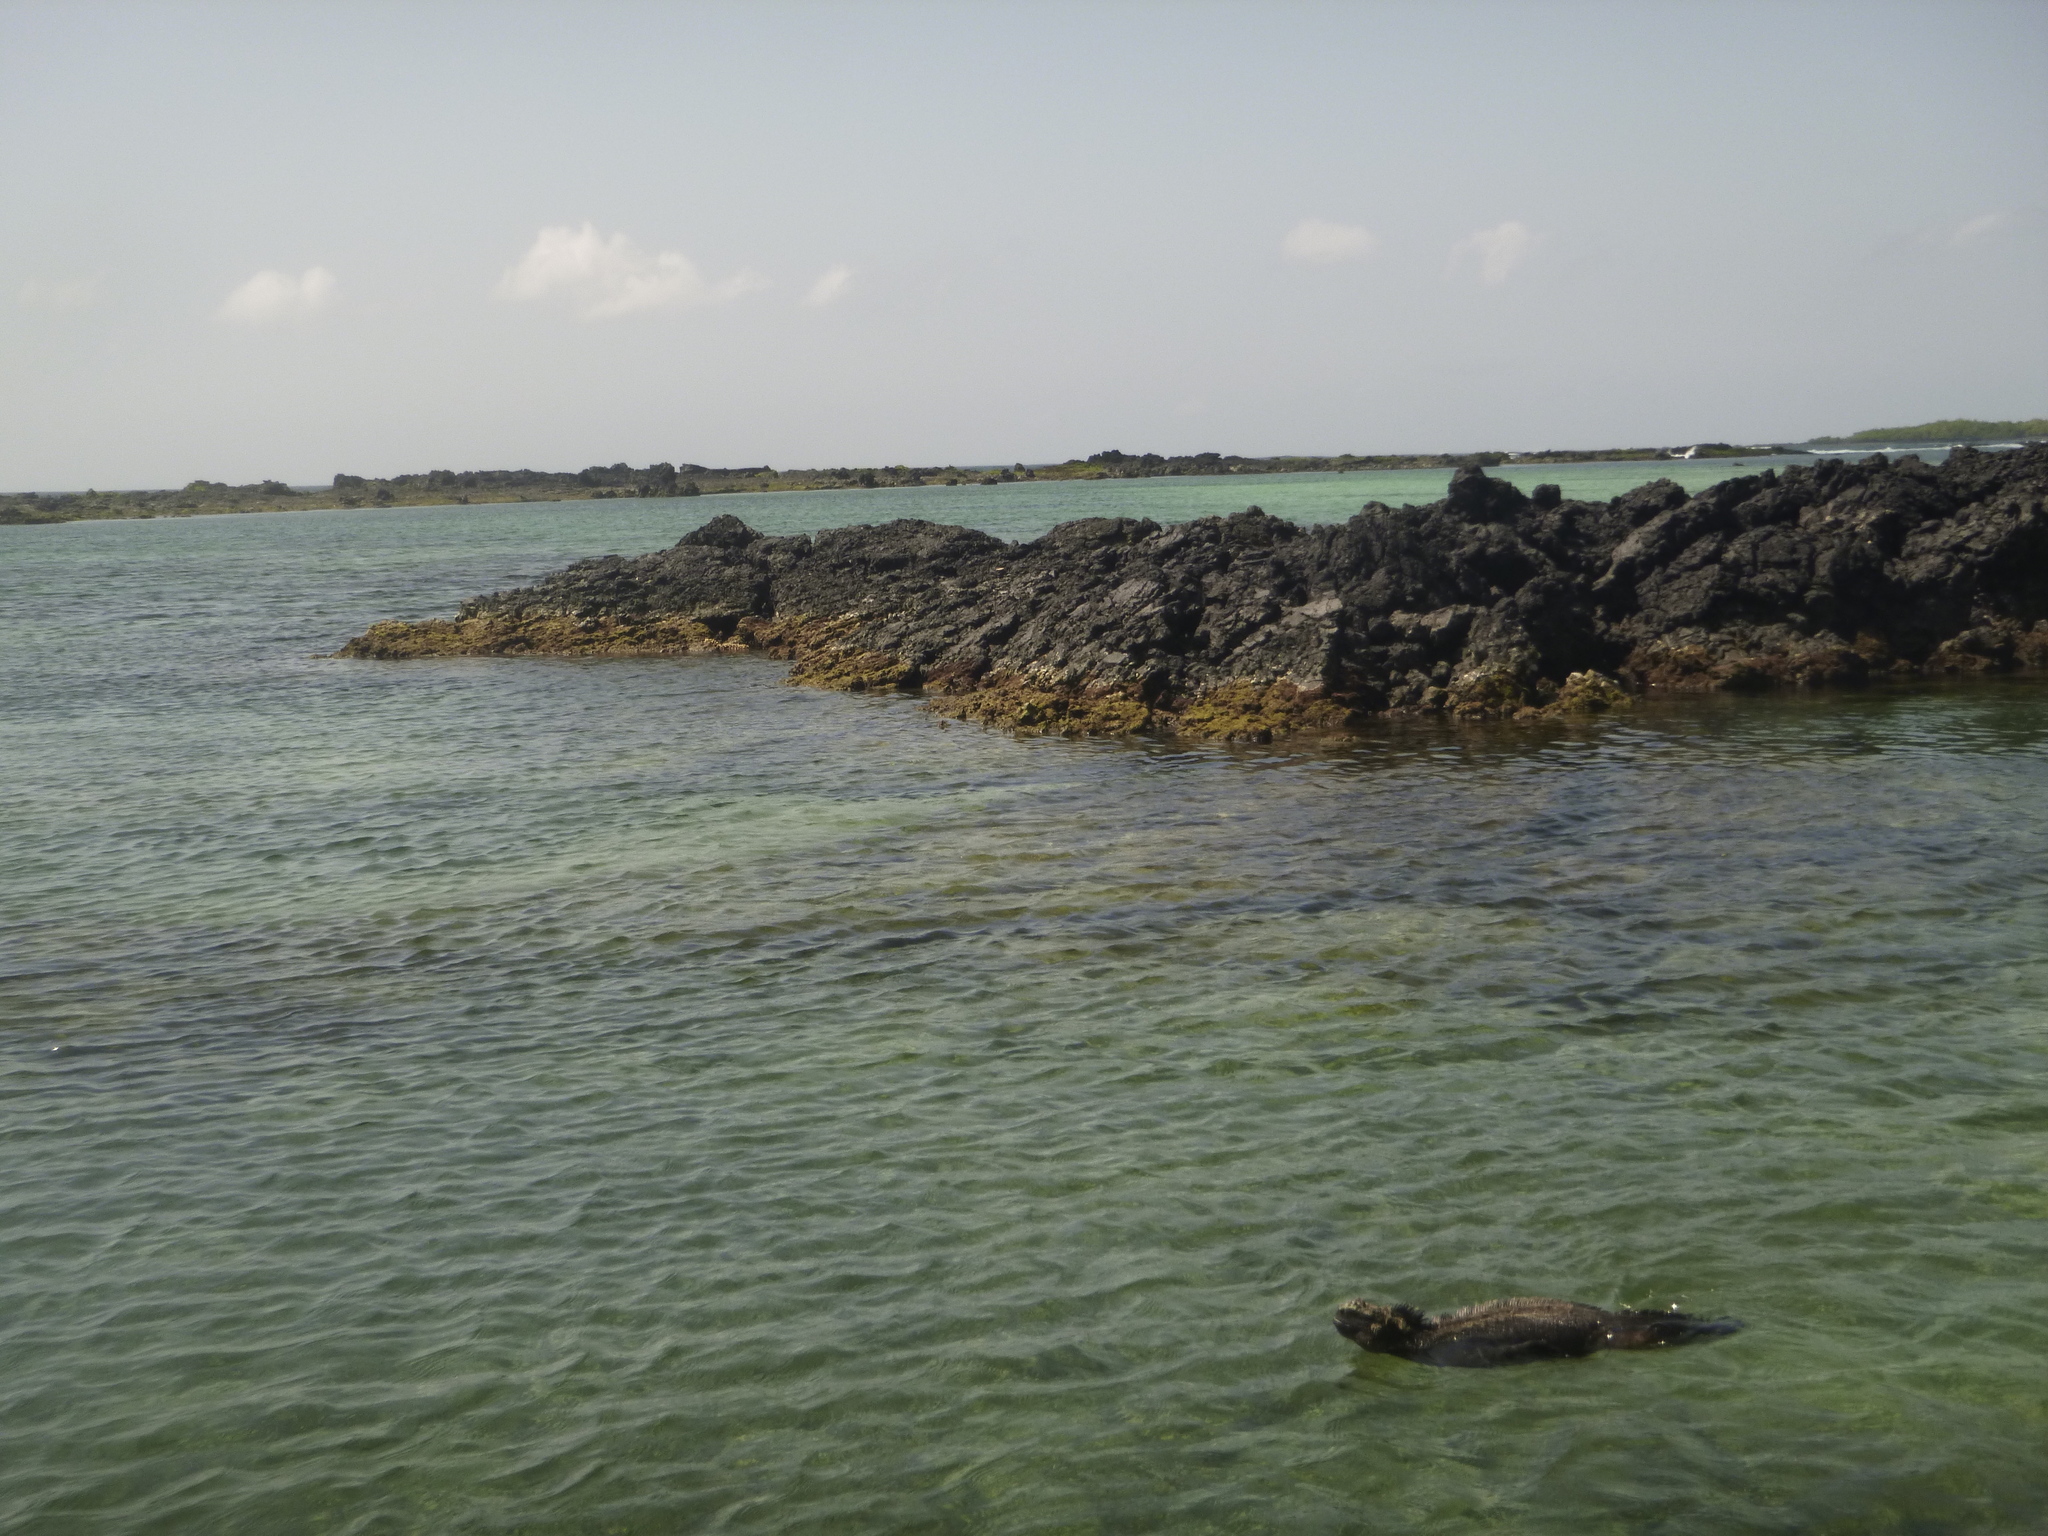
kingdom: Animalia
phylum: Chordata
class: Squamata
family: Iguanidae
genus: Amblyrhynchus
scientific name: Amblyrhynchus cristatus
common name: Marine iguana
